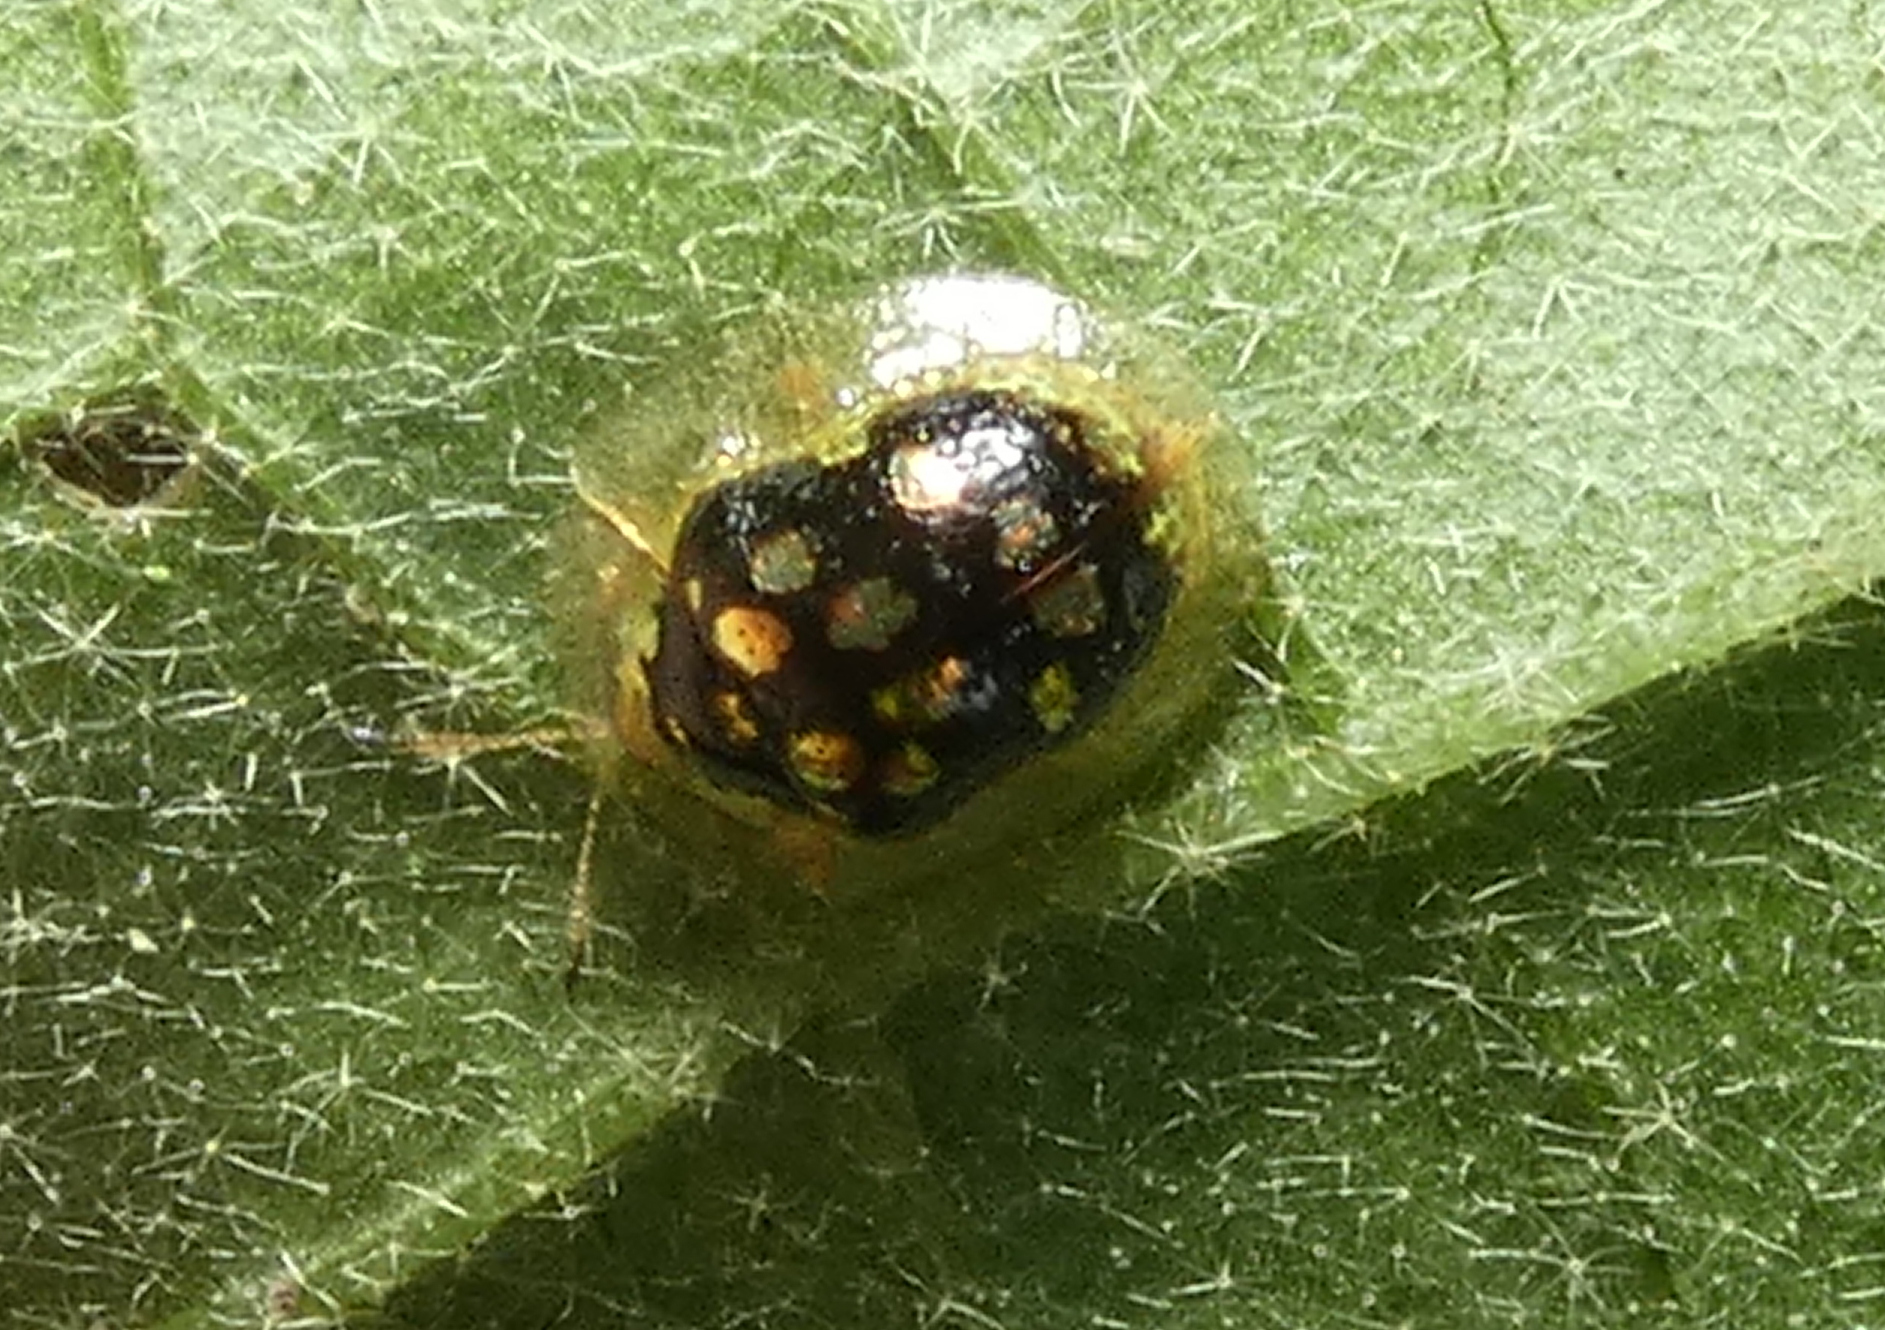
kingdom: Animalia
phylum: Arthropoda
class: Insecta
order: Coleoptera
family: Chrysomelidae
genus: Plagiometriona
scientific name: Plagiometriona microcera
